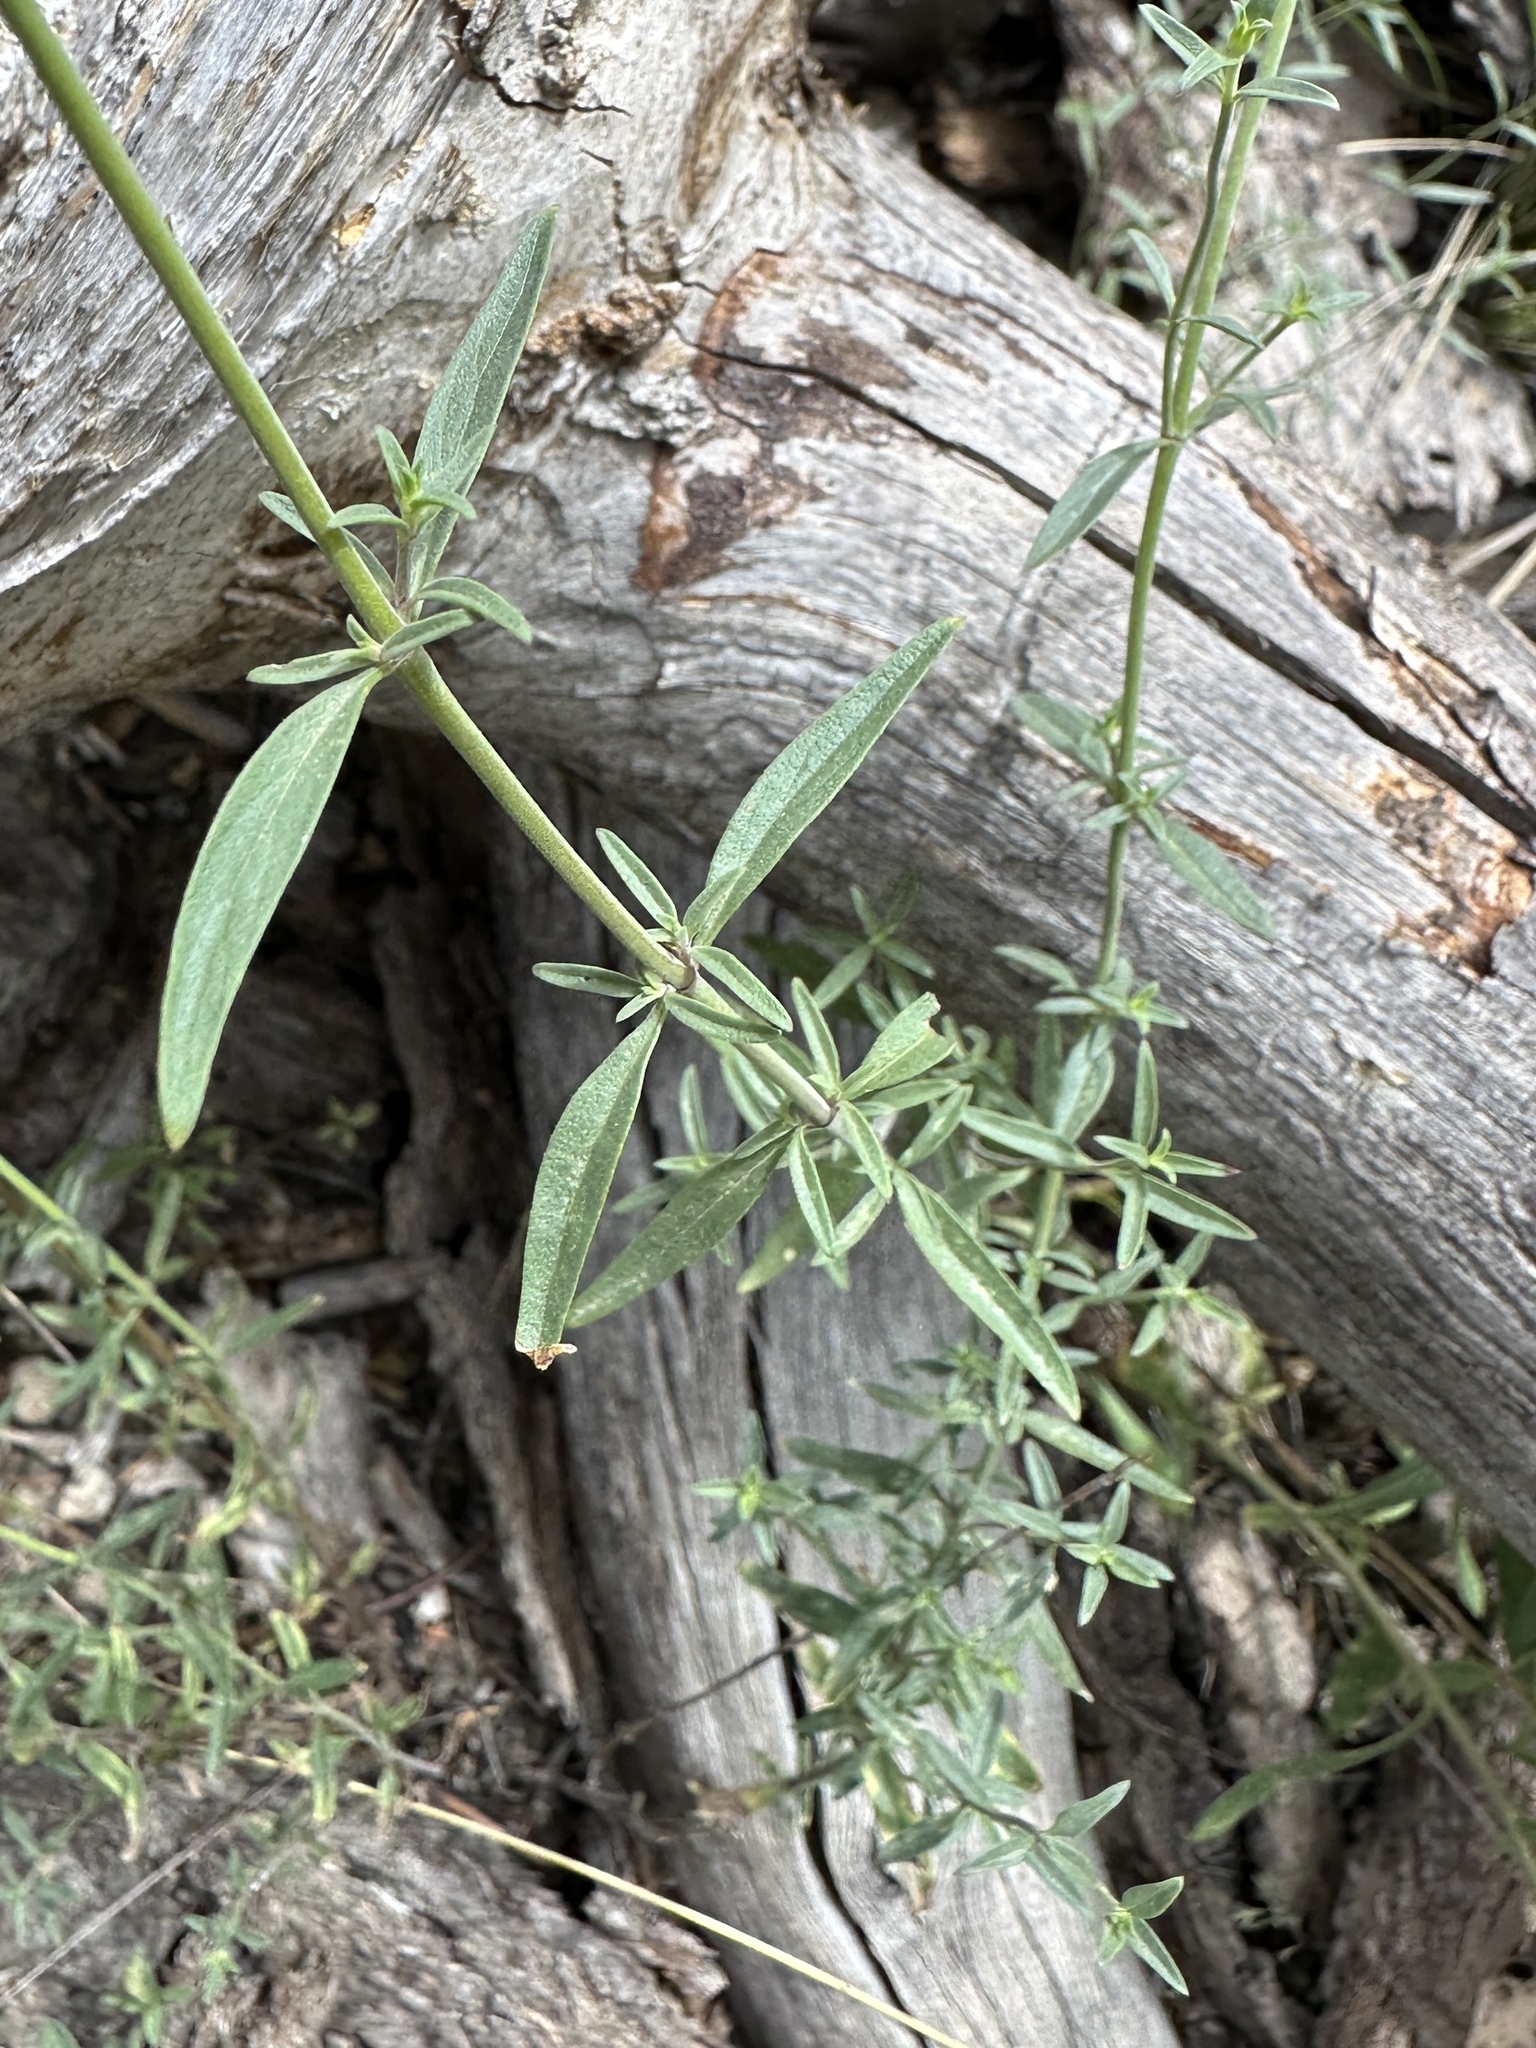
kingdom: Plantae
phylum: Tracheophyta
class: Magnoliopsida
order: Lamiales
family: Lamiaceae
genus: Monardella
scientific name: Monardella odoratissima
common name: Pacific monardella
